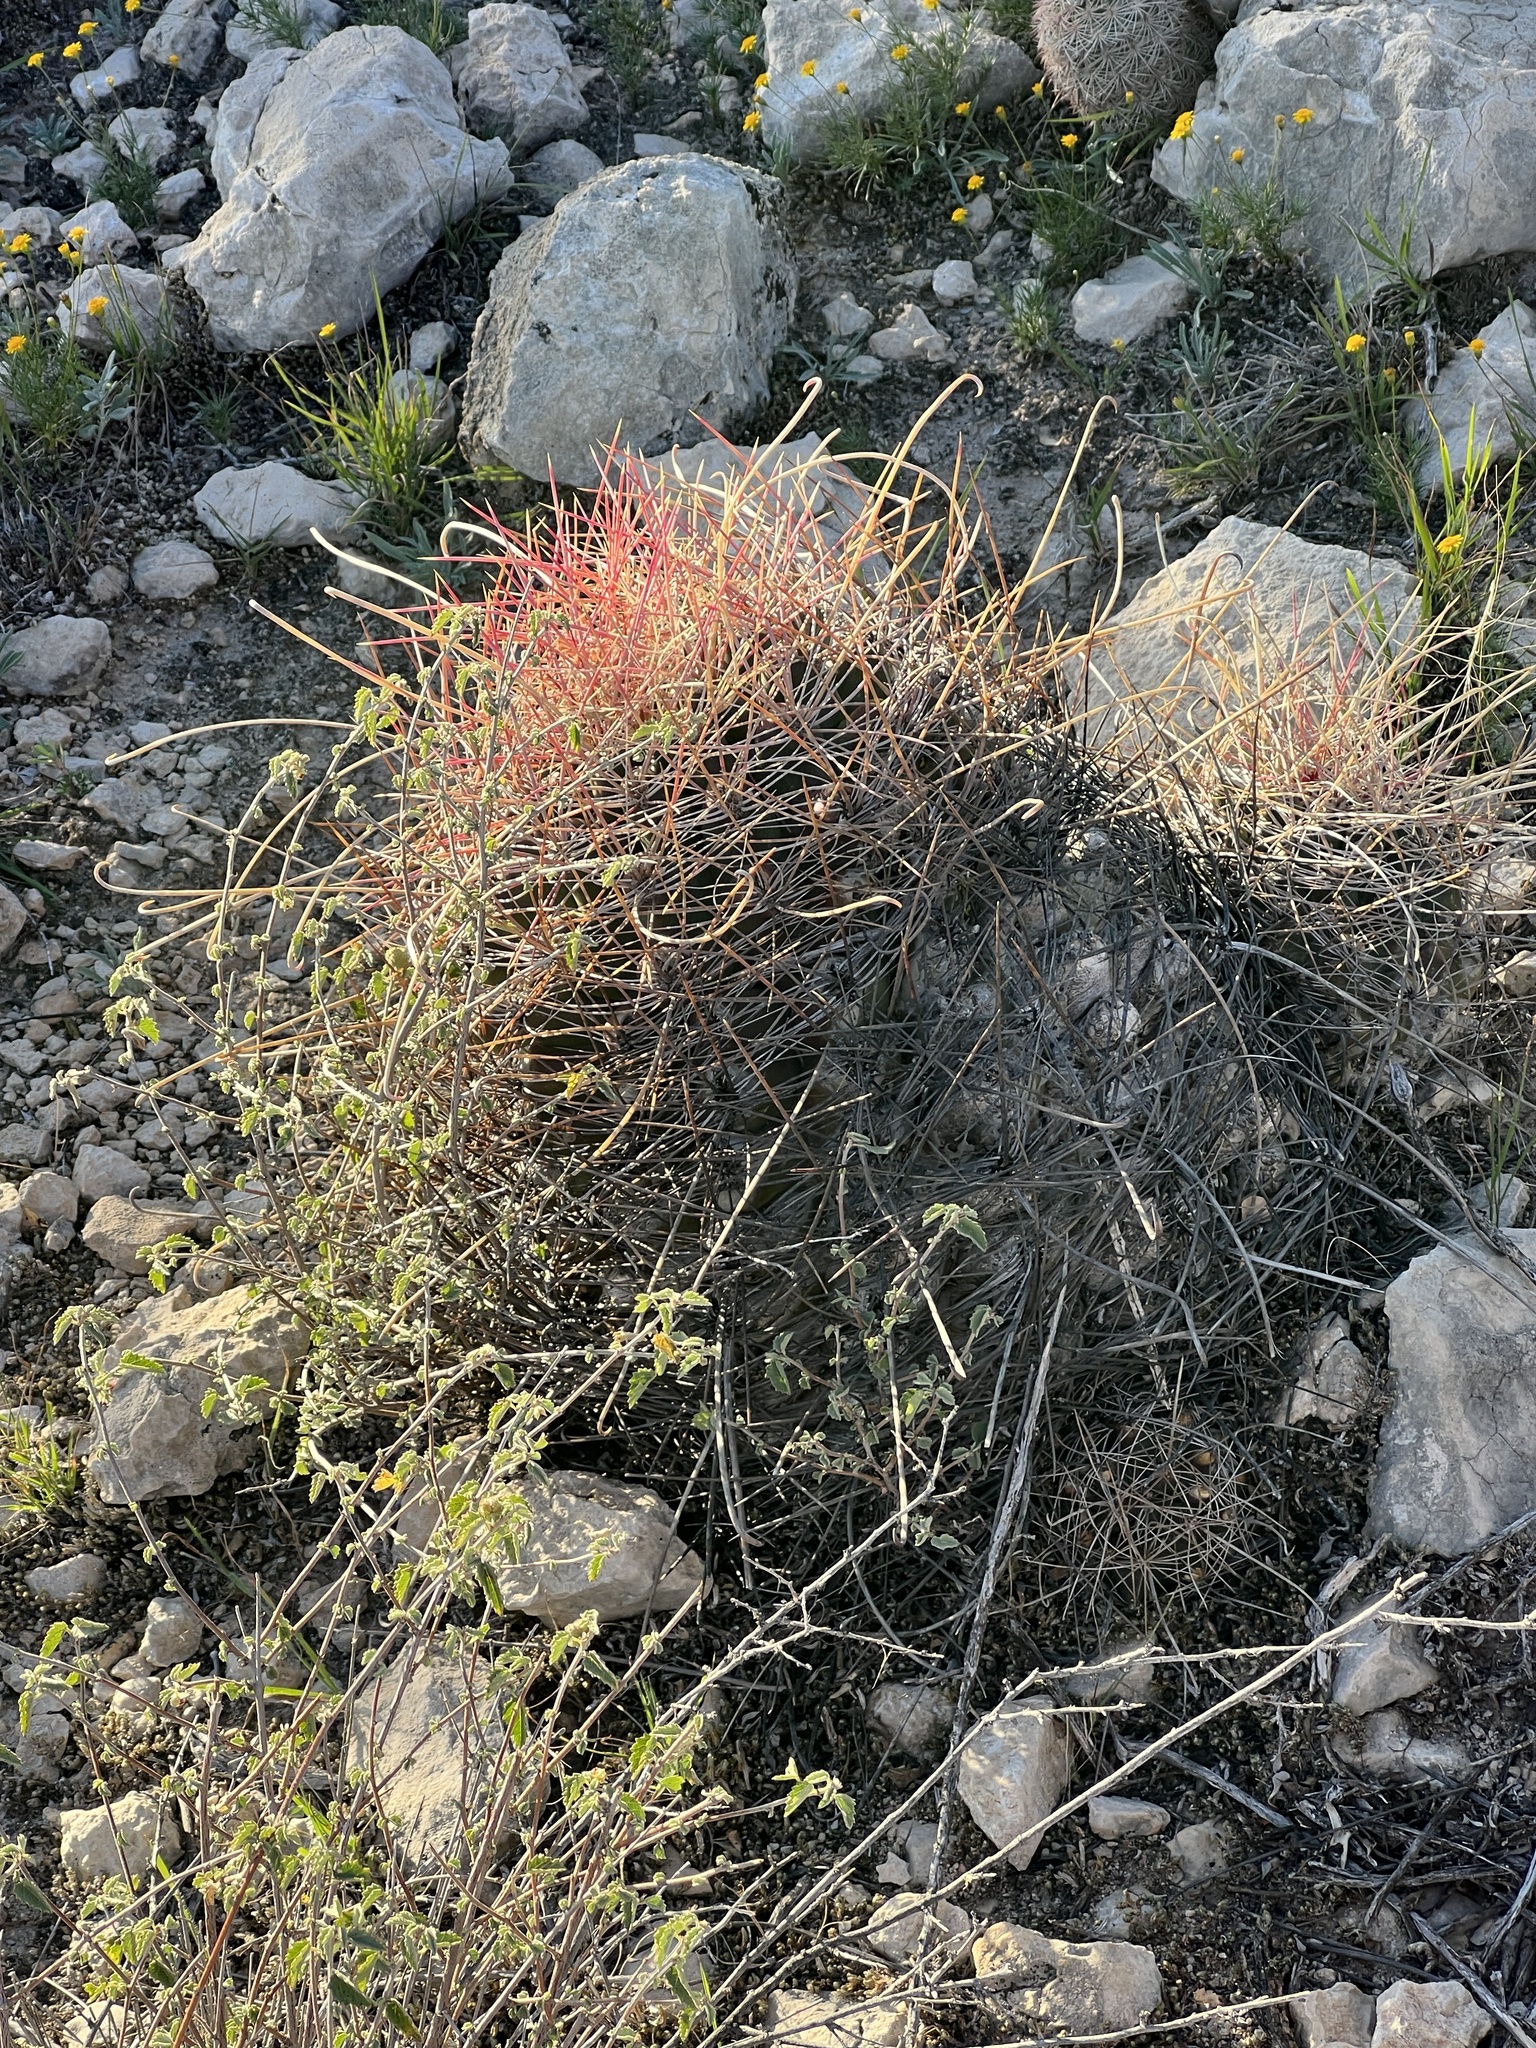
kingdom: Plantae
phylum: Tracheophyta
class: Magnoliopsida
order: Caryophyllales
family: Cactaceae
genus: Bisnaga
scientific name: Bisnaga hamatacantha
